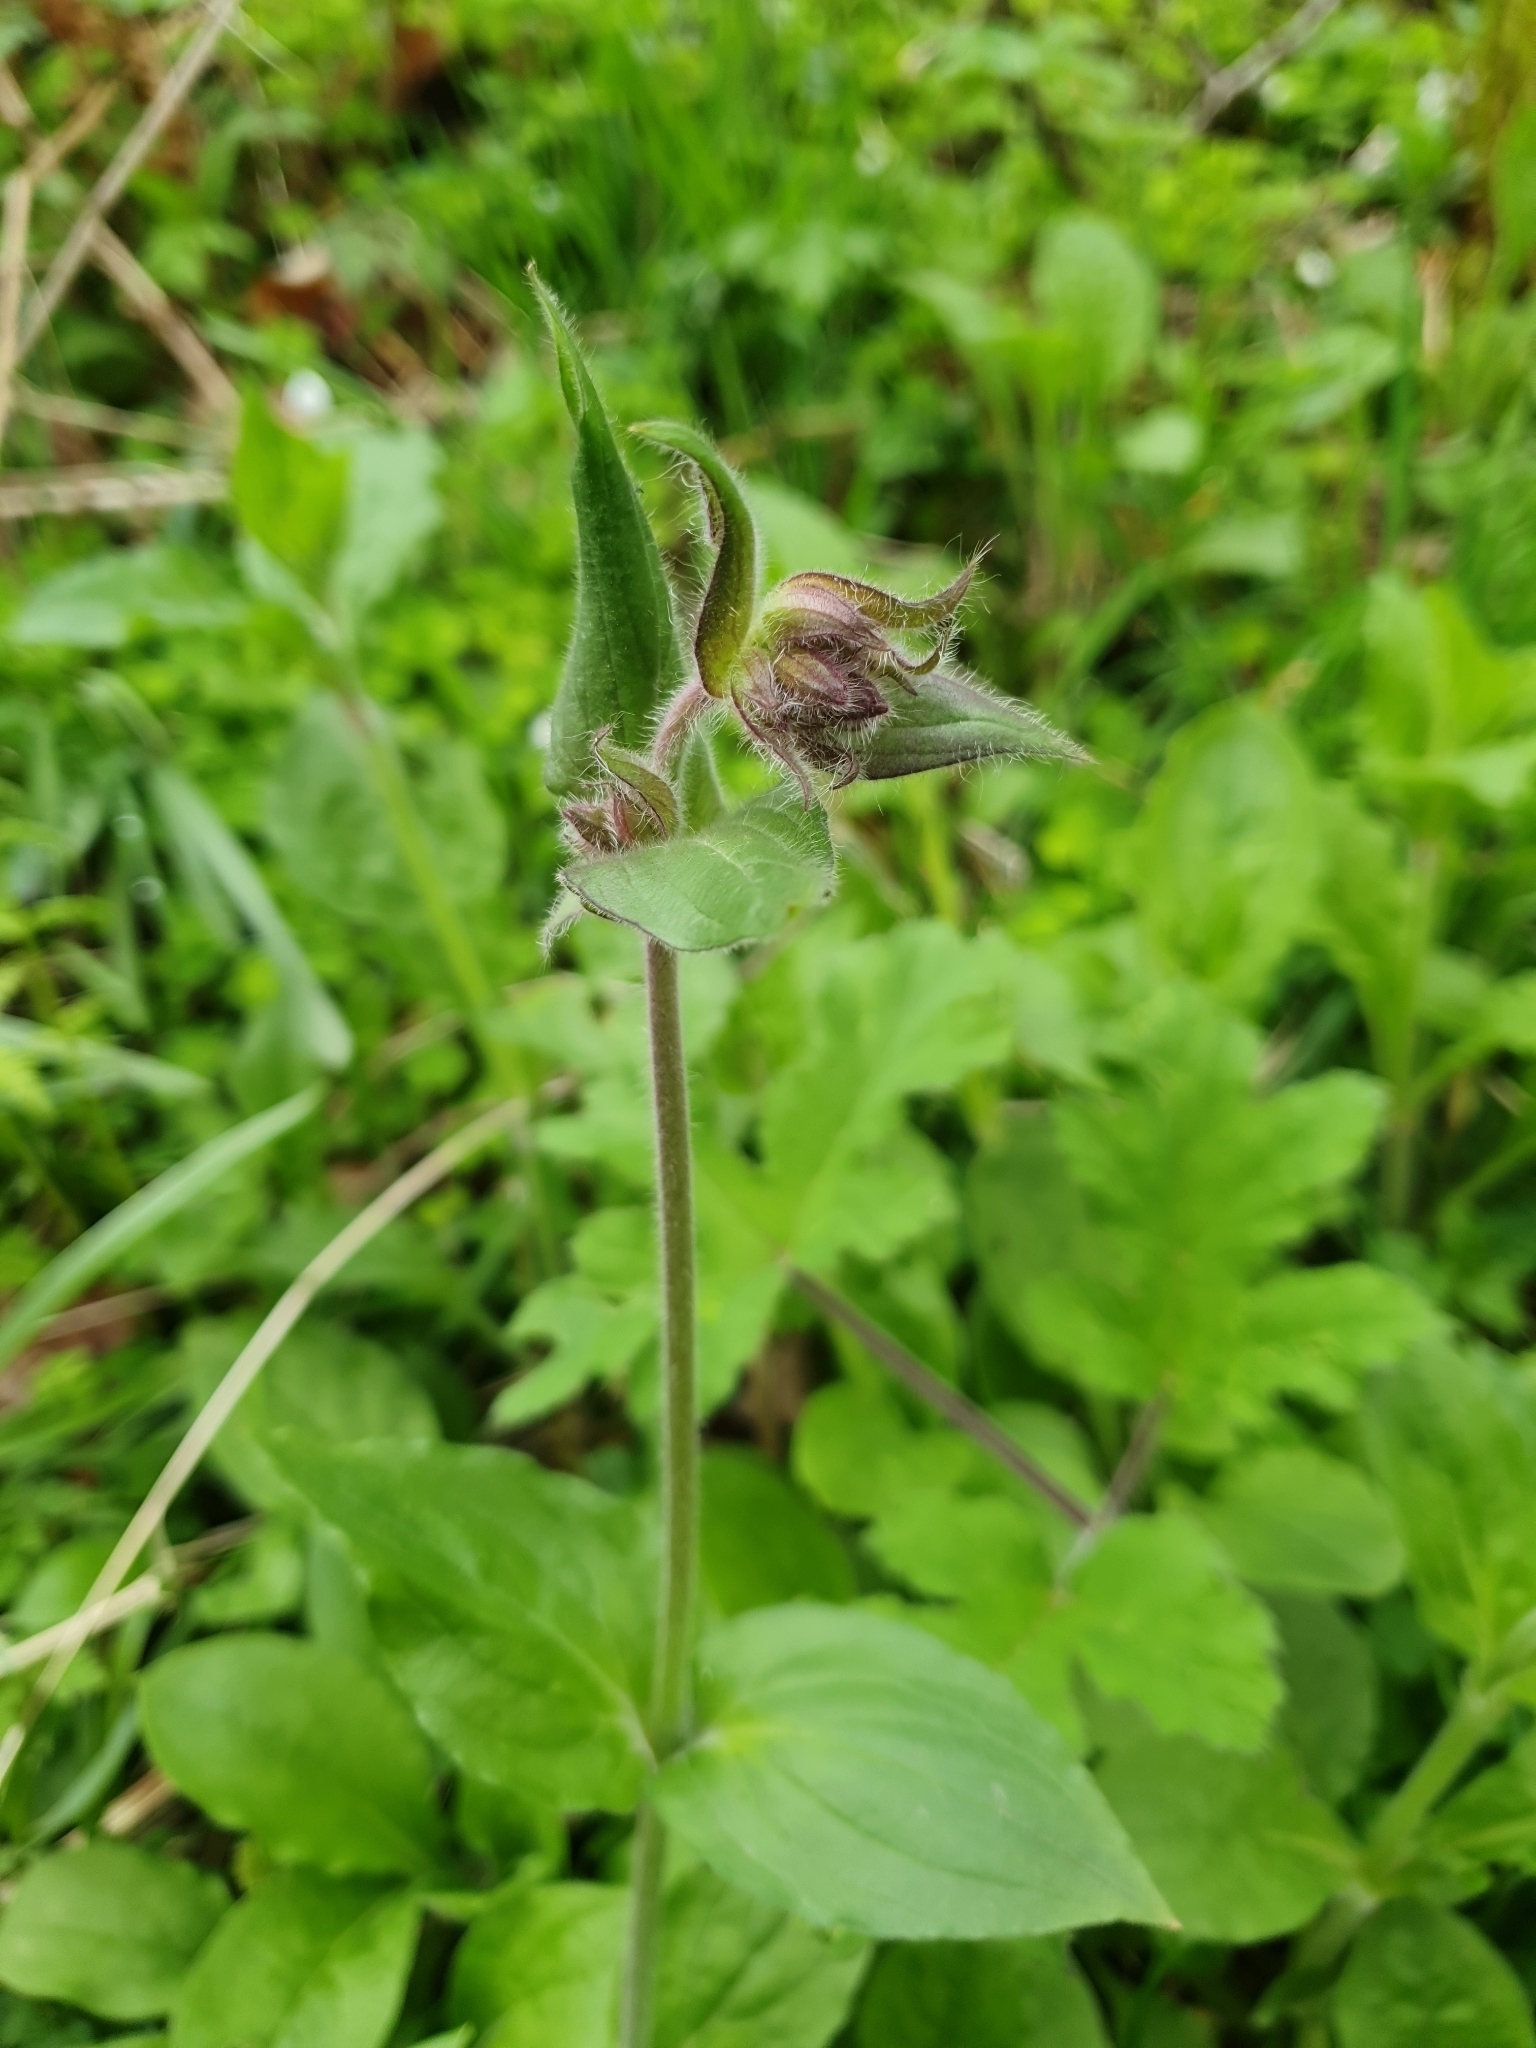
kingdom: Plantae
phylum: Tracheophyta
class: Magnoliopsida
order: Caryophyllales
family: Caryophyllaceae
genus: Silene
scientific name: Silene dioica
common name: Red campion
